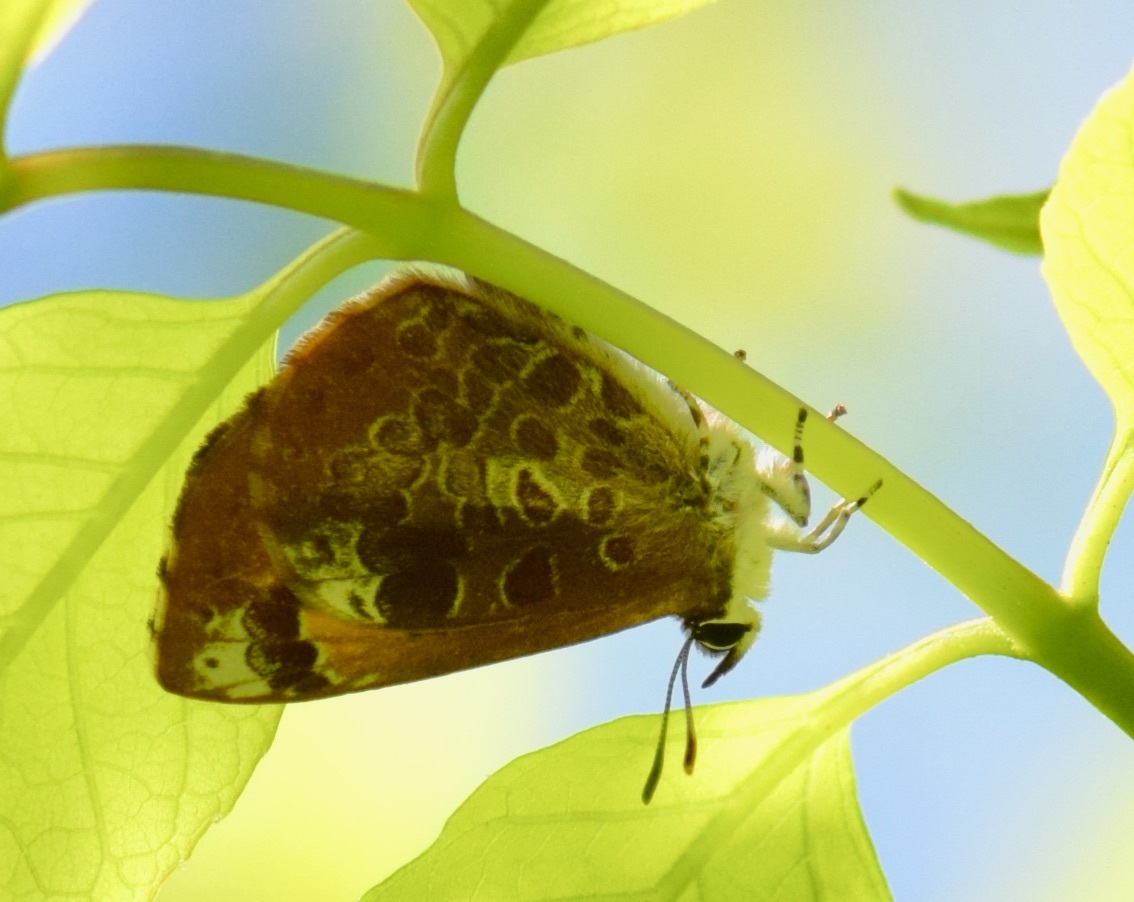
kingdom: Animalia
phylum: Arthropoda
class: Insecta
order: Lepidoptera
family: Lycaenidae
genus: Feniseca
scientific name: Feniseca tarquinius
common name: Harvester
